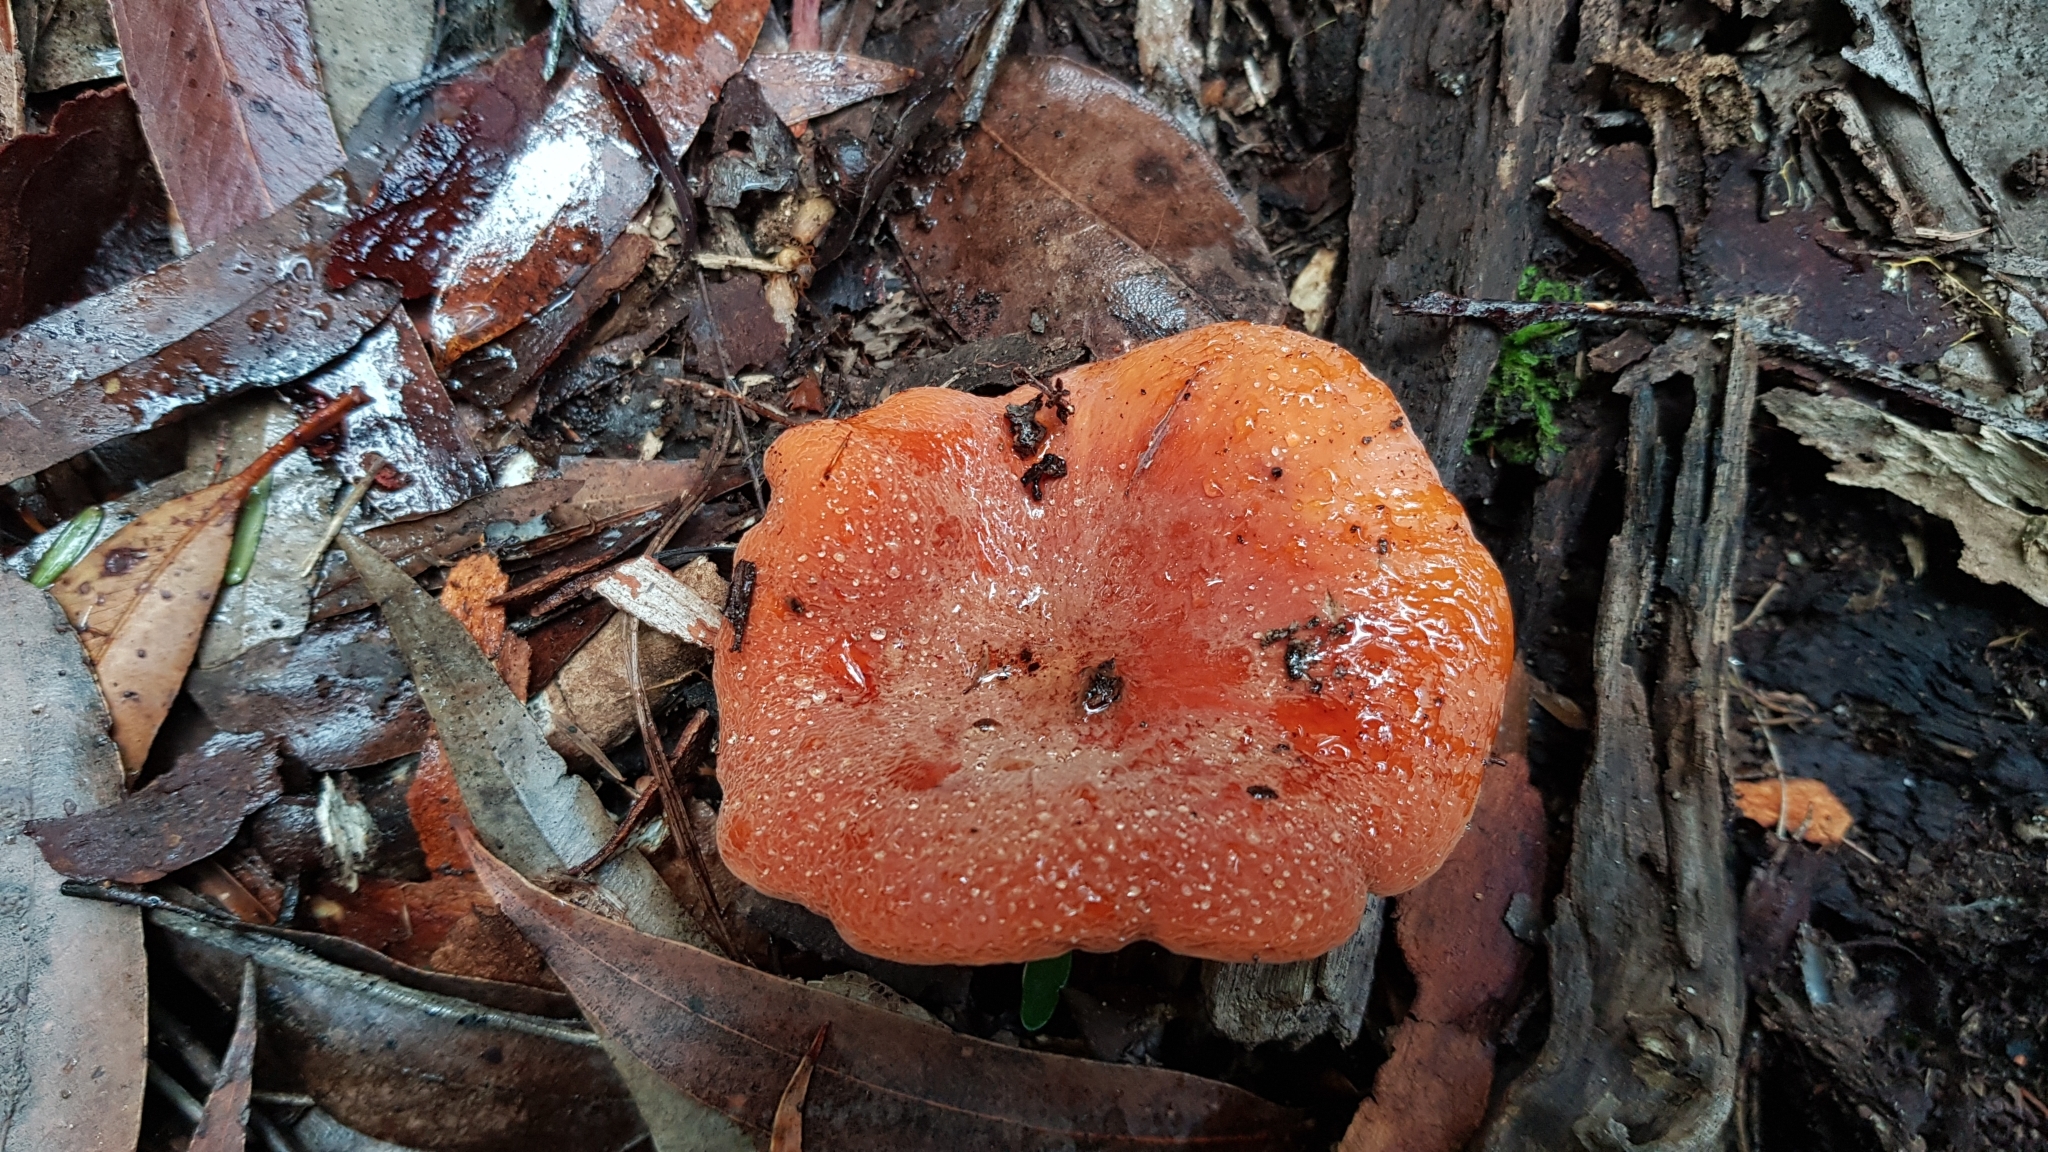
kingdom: Fungi
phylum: Basidiomycota
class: Agaricomycetes
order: Russulales
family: Russulaceae
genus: Lactifluus
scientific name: Lactifluus flocktoniae
